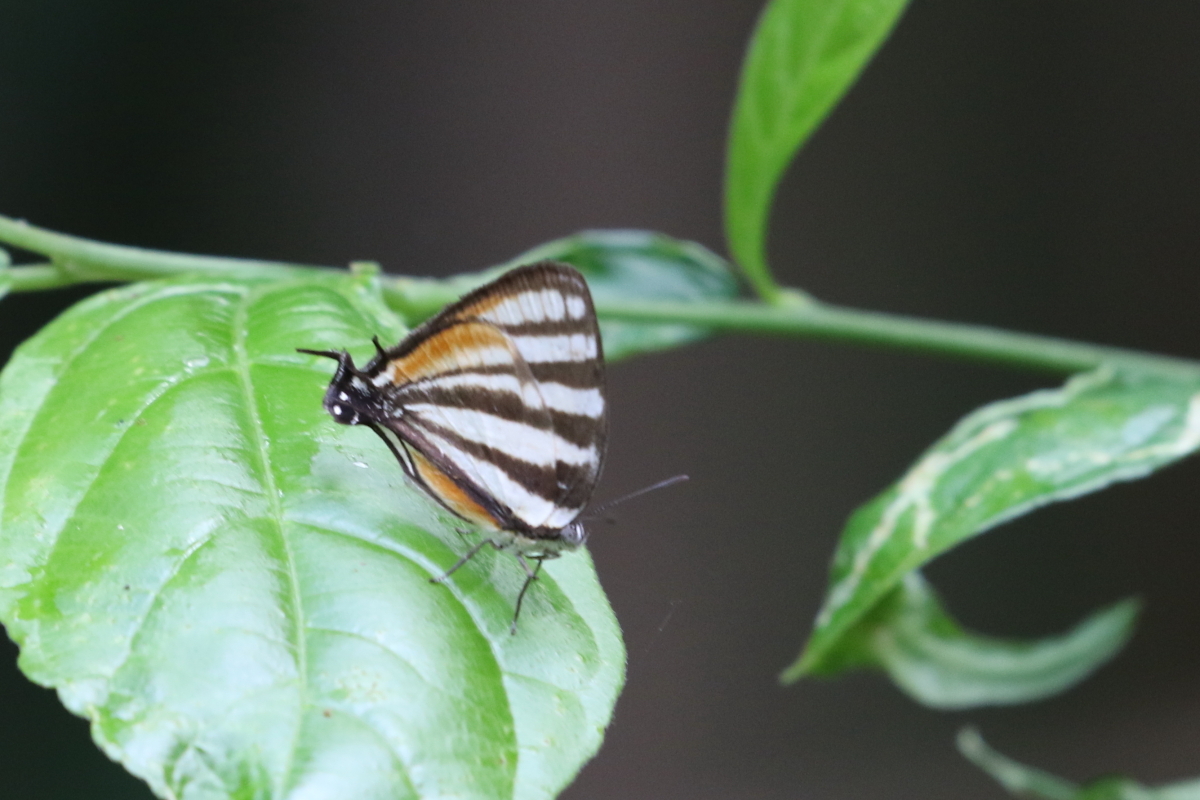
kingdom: Animalia
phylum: Arthropoda
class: Insecta
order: Lepidoptera
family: Lycaenidae
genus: Arawacus
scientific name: Arawacus lincoides
